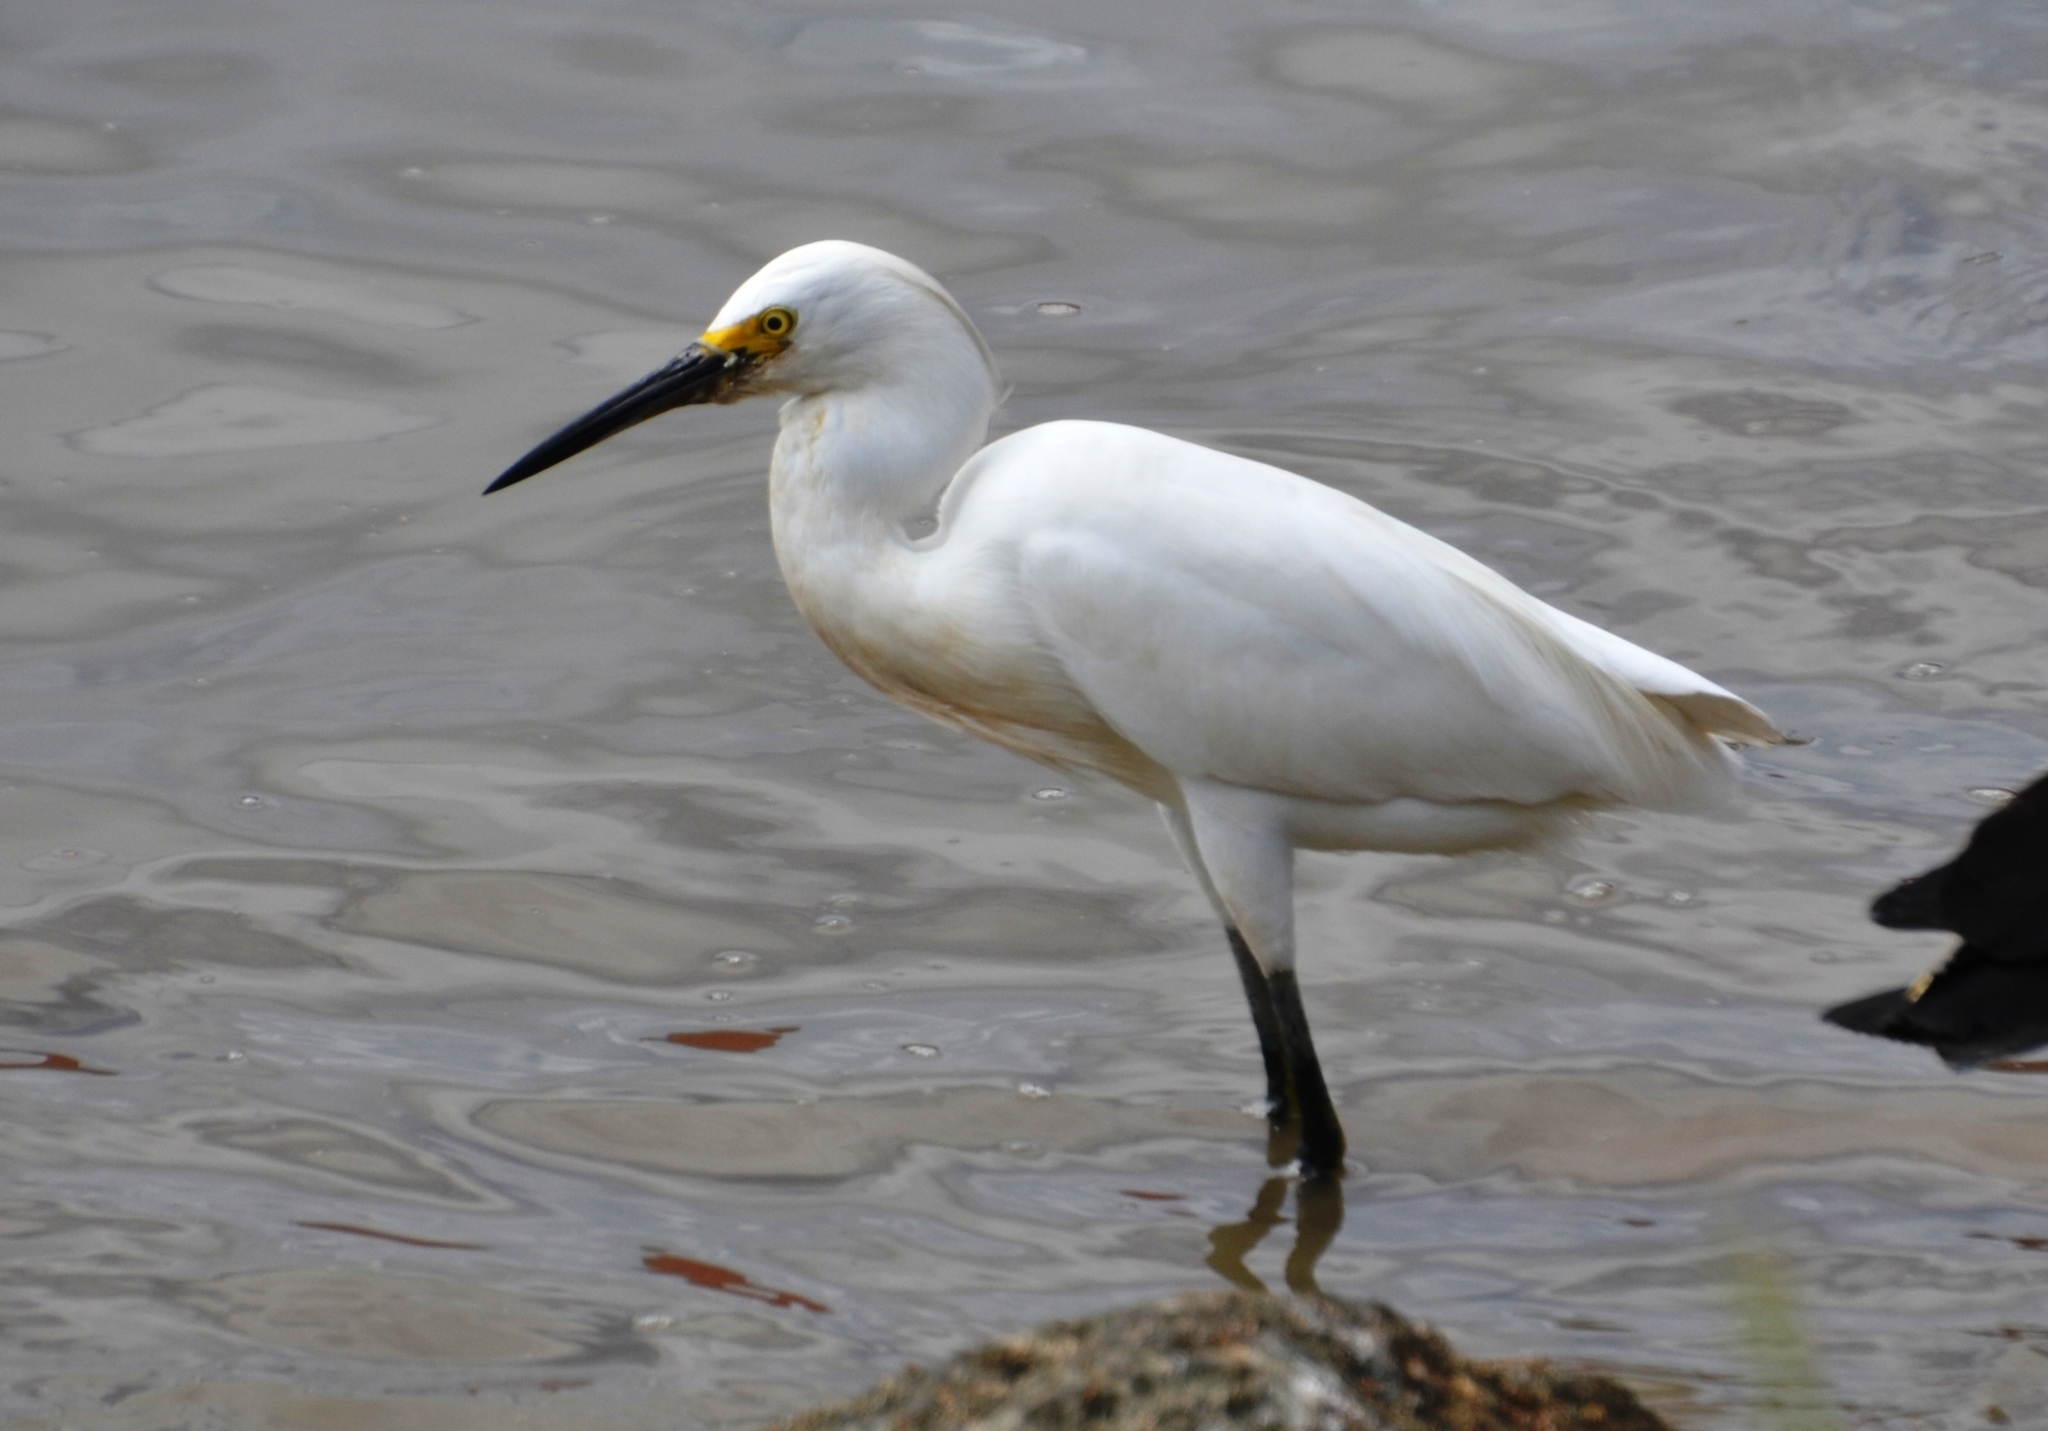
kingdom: Animalia
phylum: Chordata
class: Aves
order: Pelecaniformes
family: Ardeidae
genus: Egretta
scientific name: Egretta thula
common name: Snowy egret
